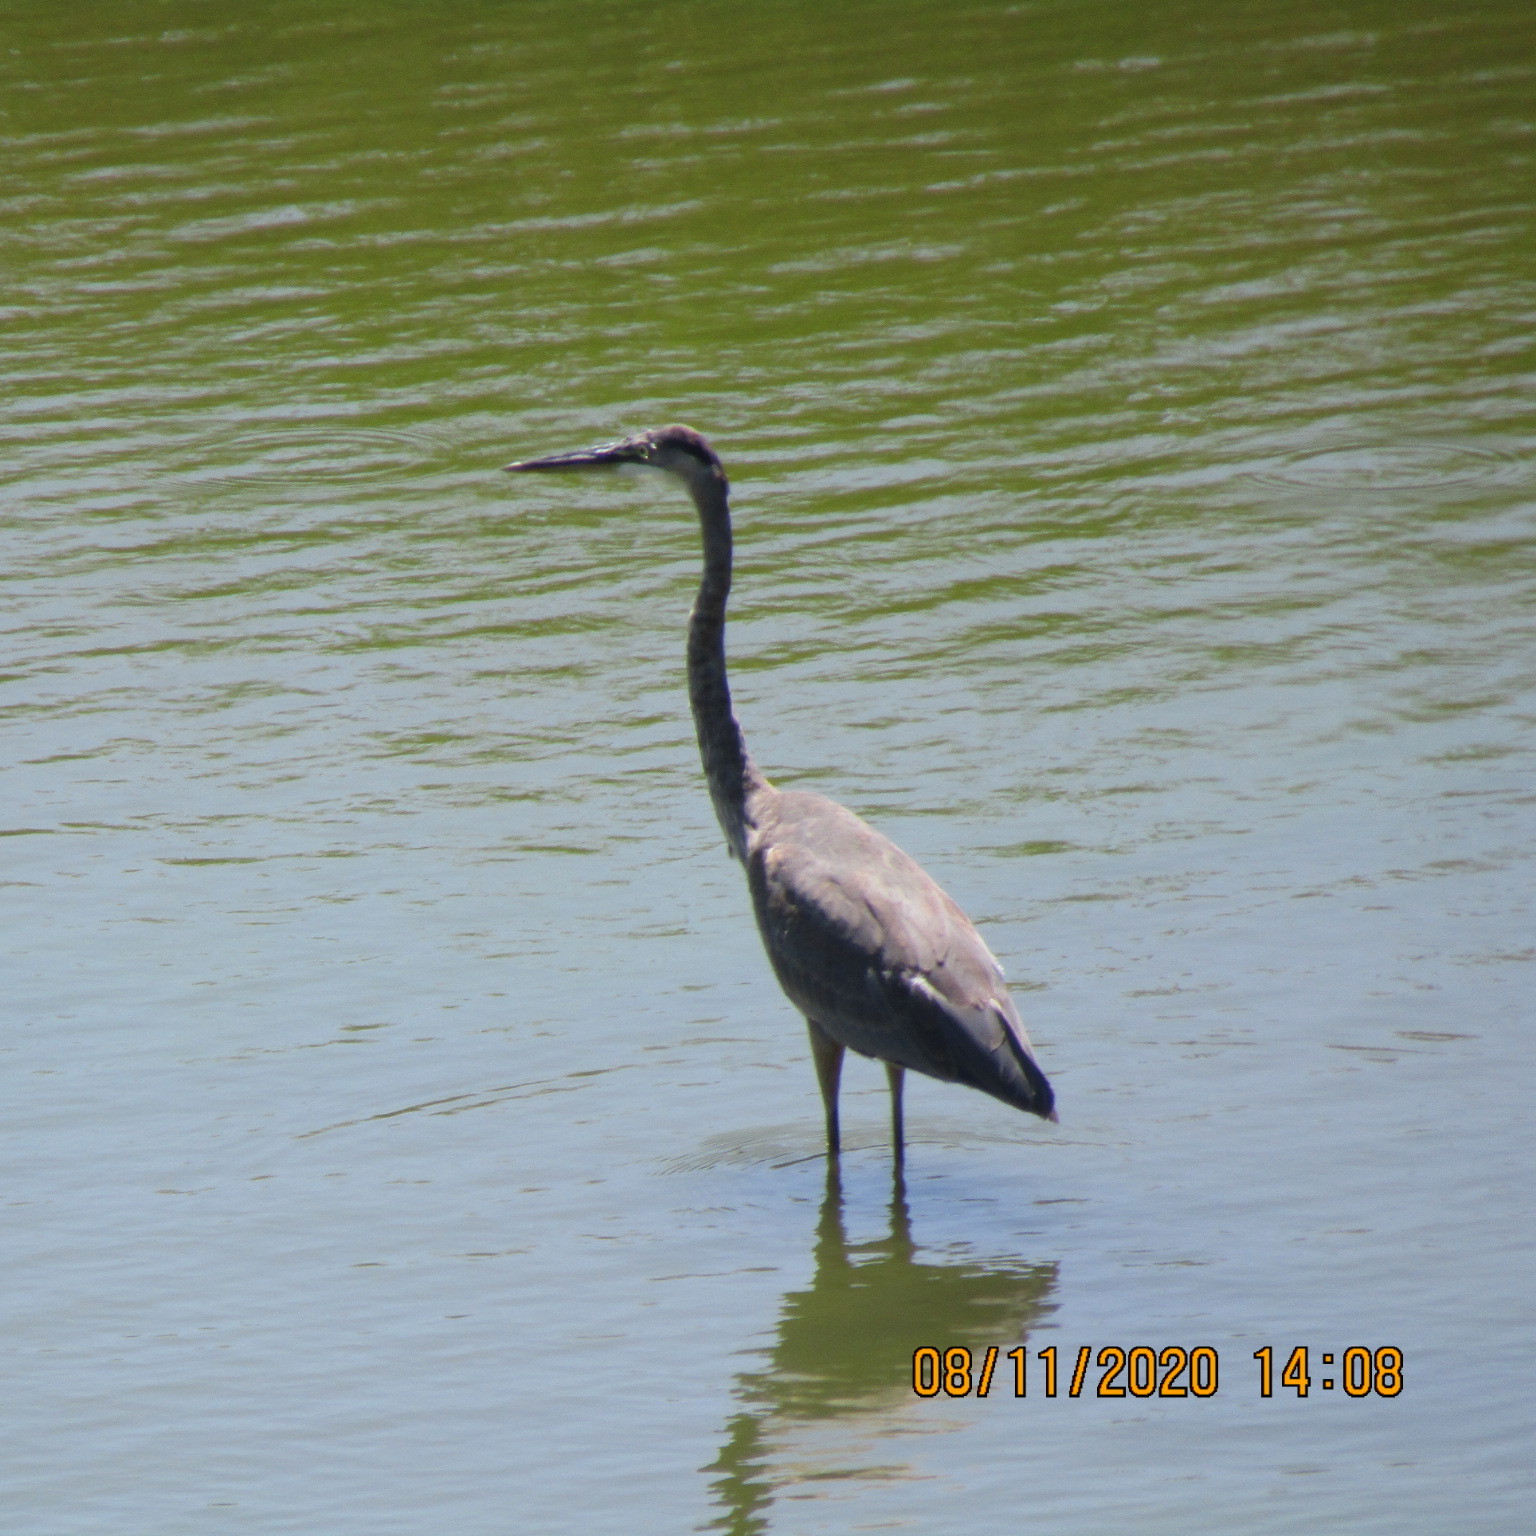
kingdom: Animalia
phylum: Chordata
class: Aves
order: Pelecaniformes
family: Ardeidae
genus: Ardea
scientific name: Ardea herodias
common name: Great blue heron
